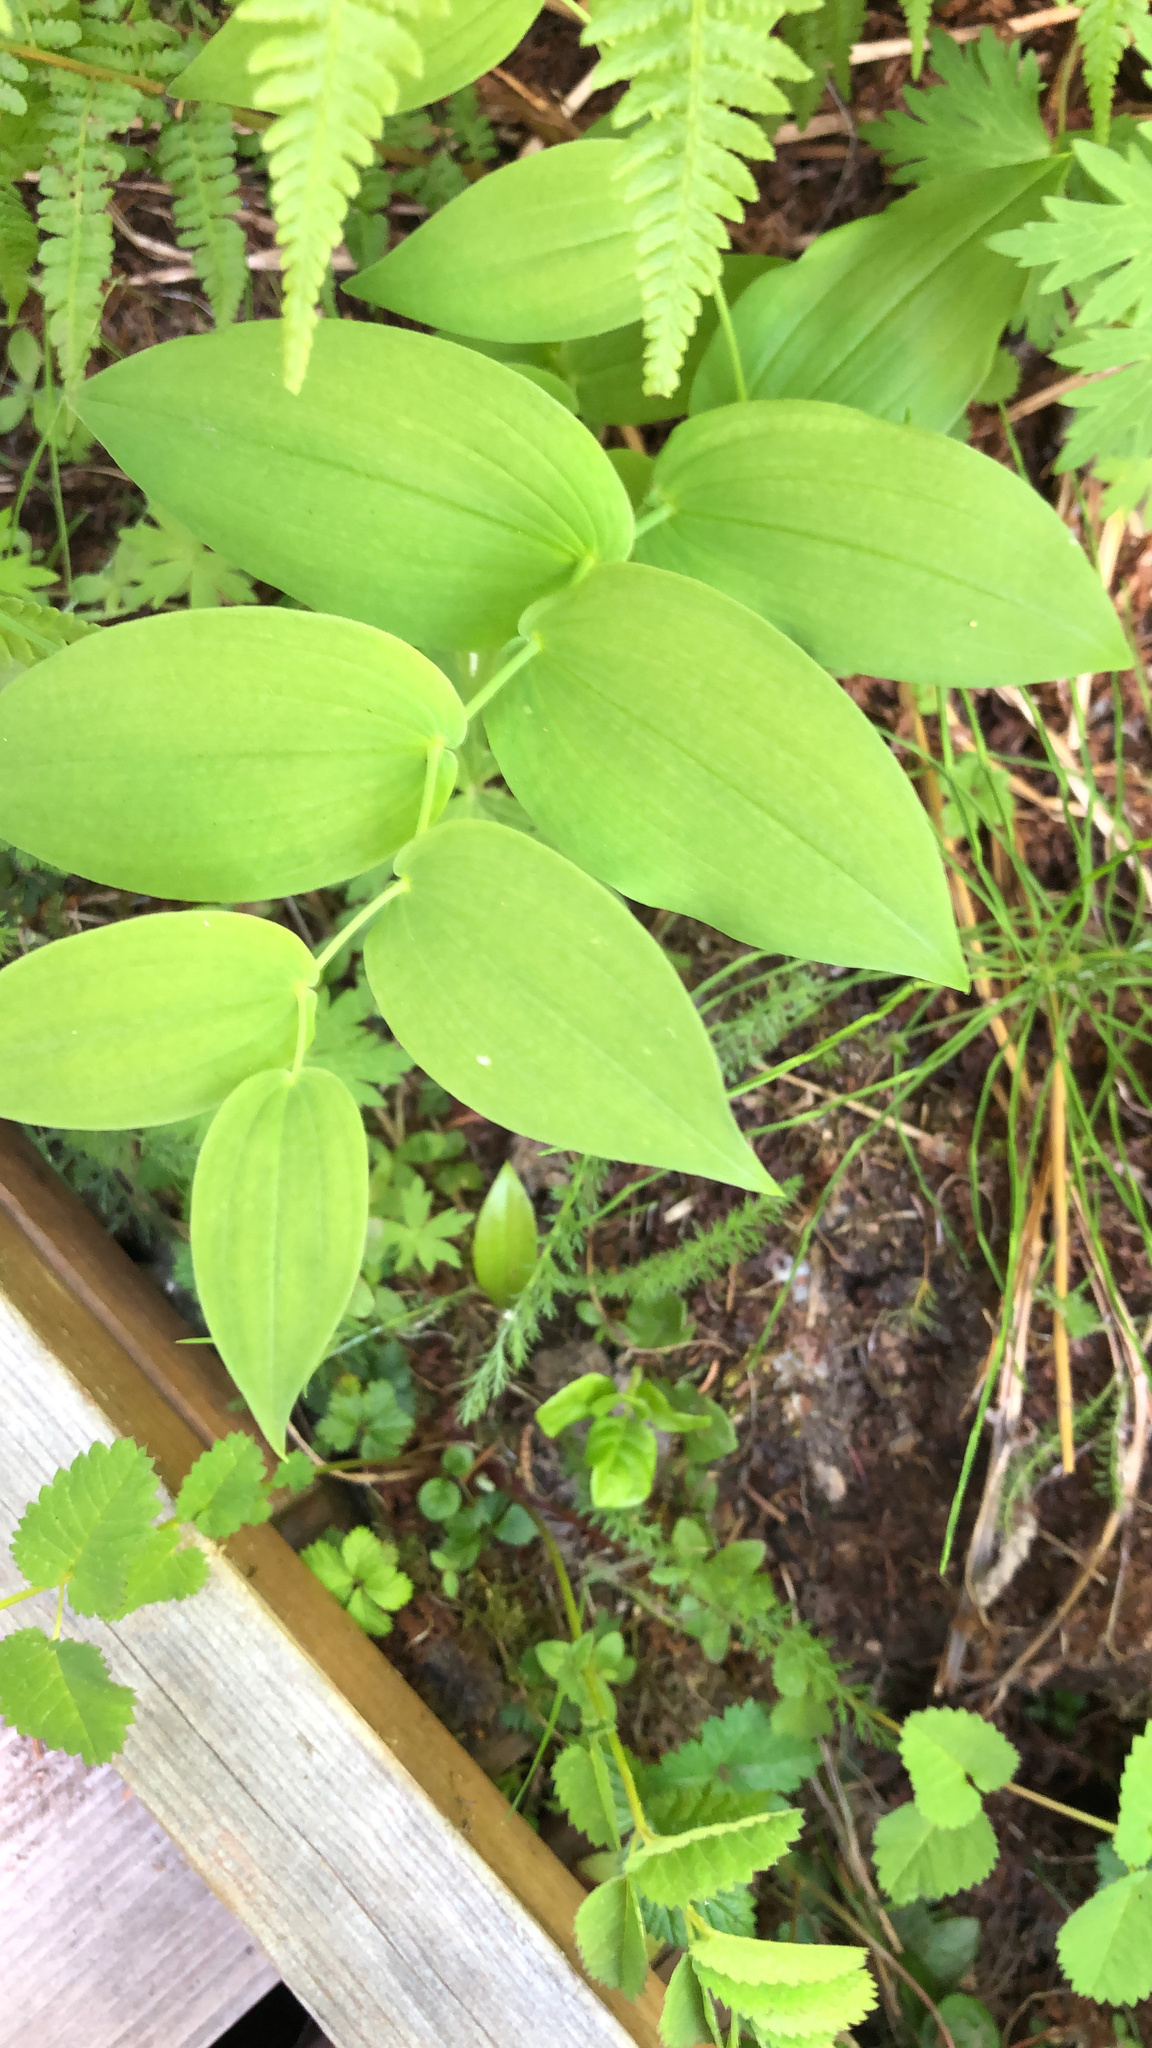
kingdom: Plantae
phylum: Tracheophyta
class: Liliopsida
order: Liliales
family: Liliaceae
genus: Streptopus
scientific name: Streptopus amplexifolius
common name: Clasp twisted stalk
